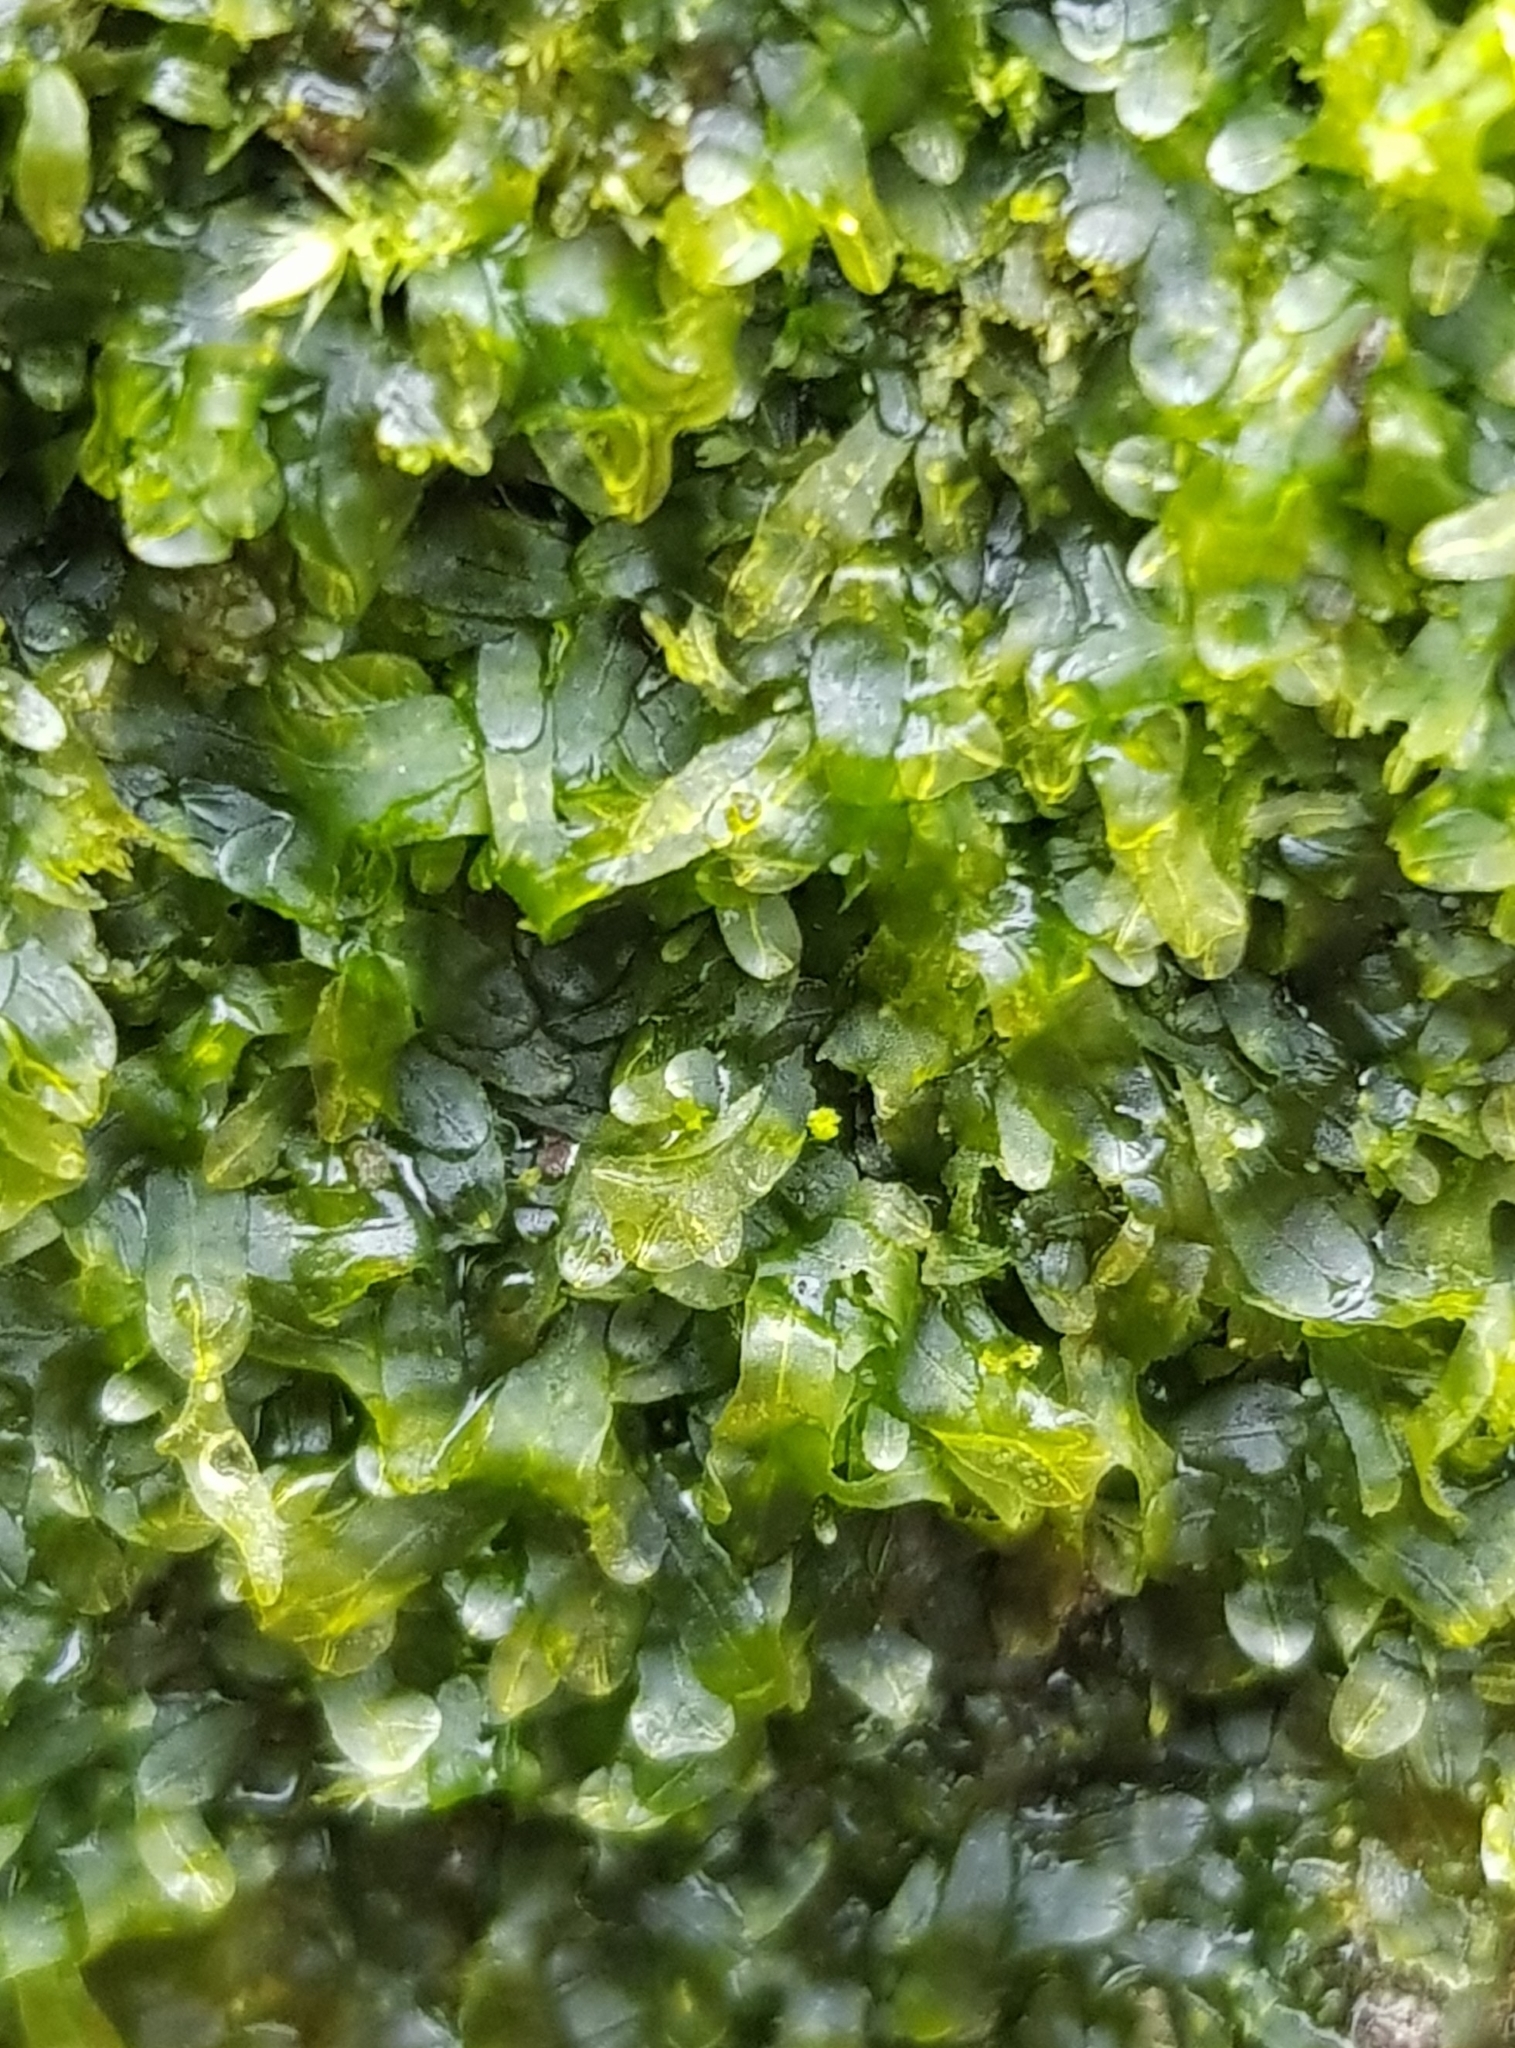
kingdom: Plantae
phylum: Marchantiophyta
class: Jungermanniopsida
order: Metzgeriales
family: Metzgeriaceae
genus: Metzgeria
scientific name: Metzgeria furcata
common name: Forked veilwort
